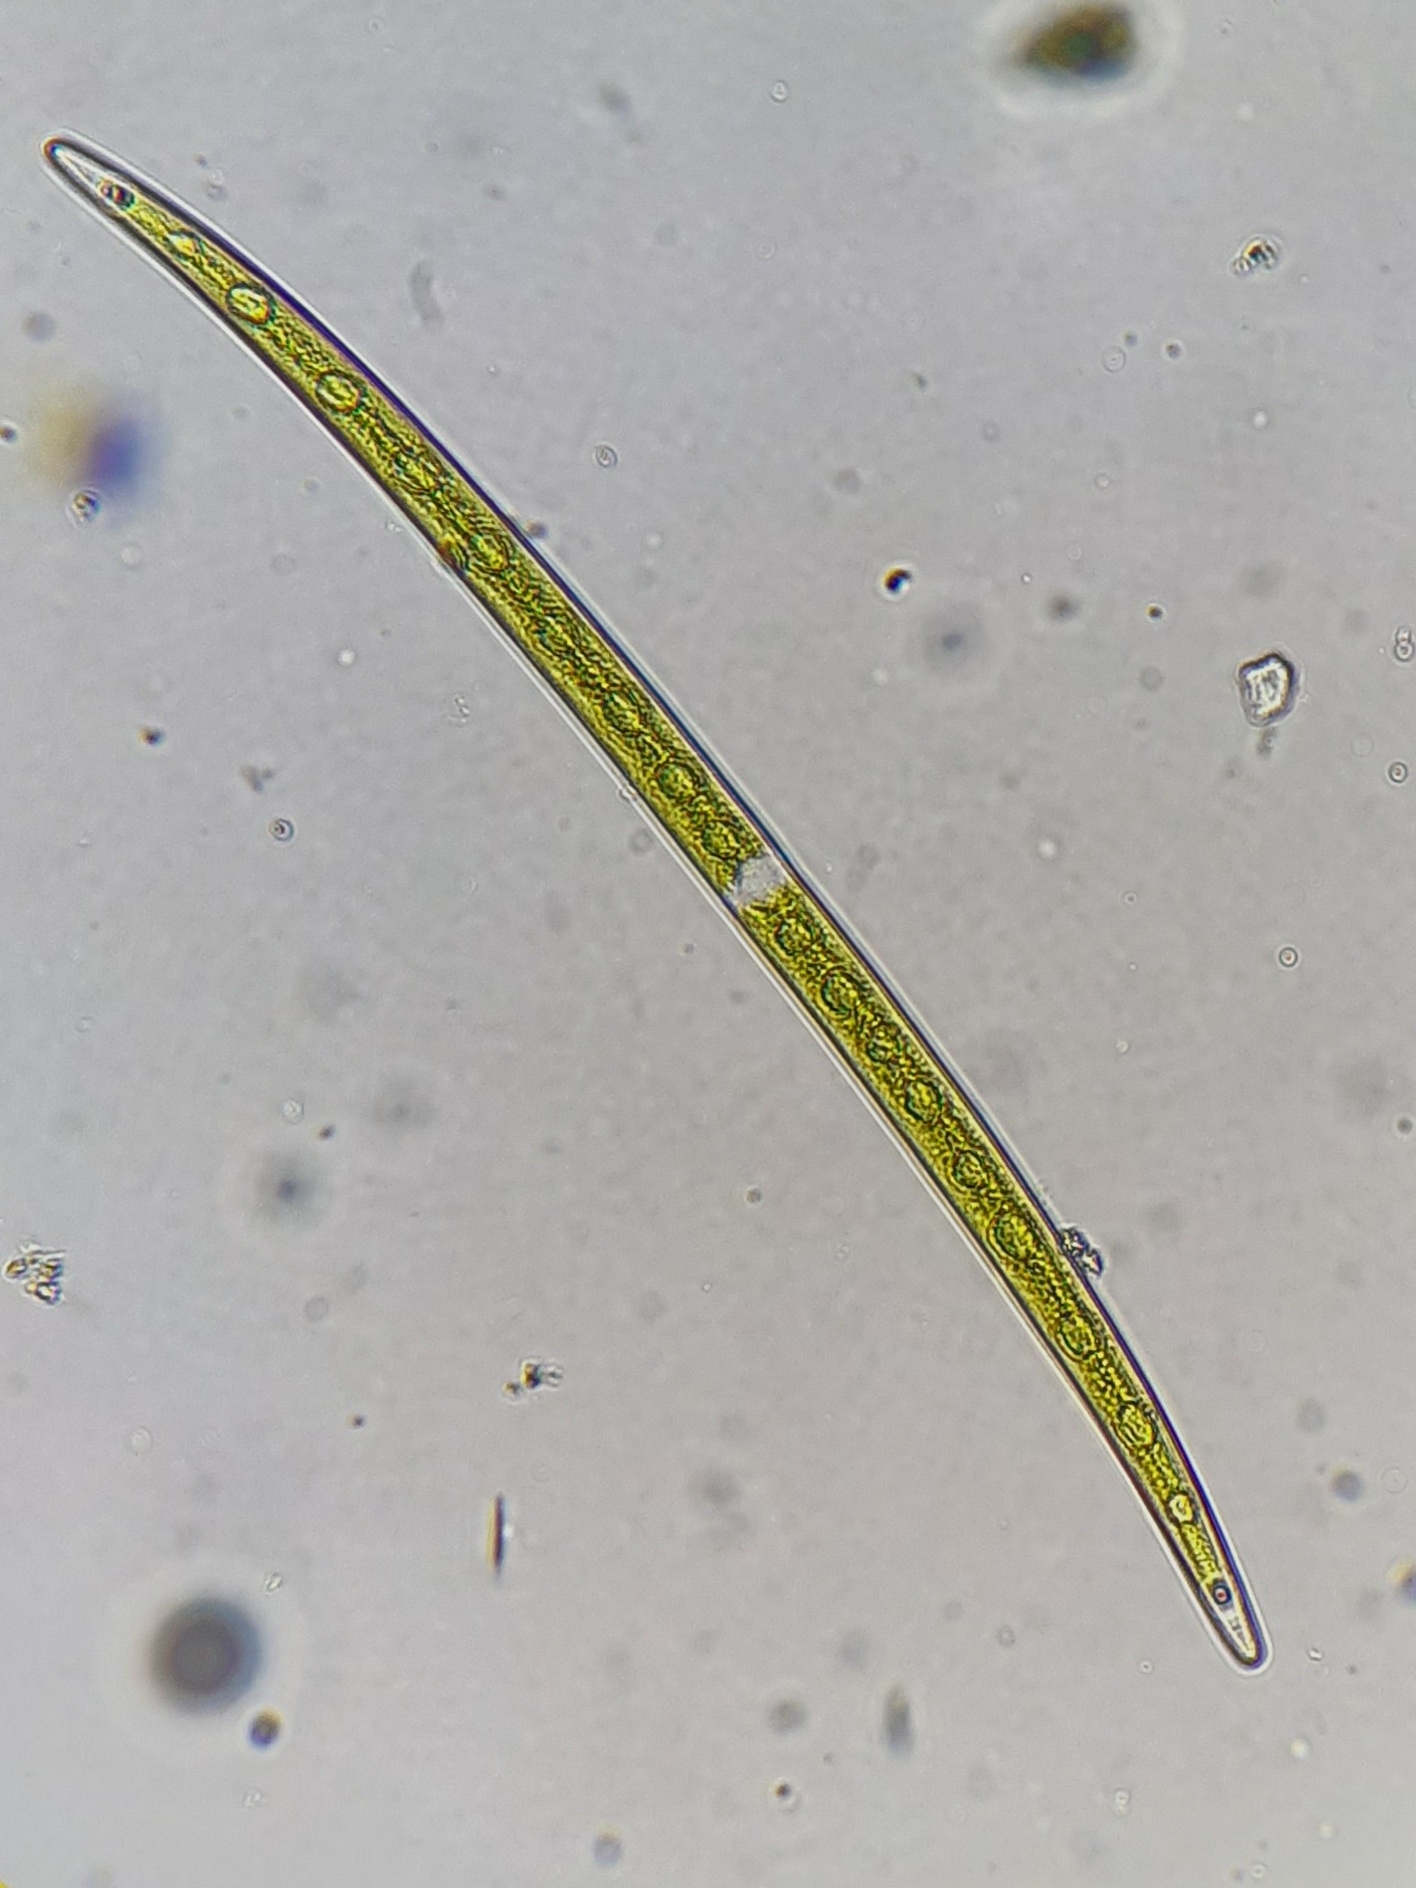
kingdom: Plantae
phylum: Charophyta
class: Zygnematophyceae
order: Zygnematales
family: Closteriaceae
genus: Closterium
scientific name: Closterium praelongum
